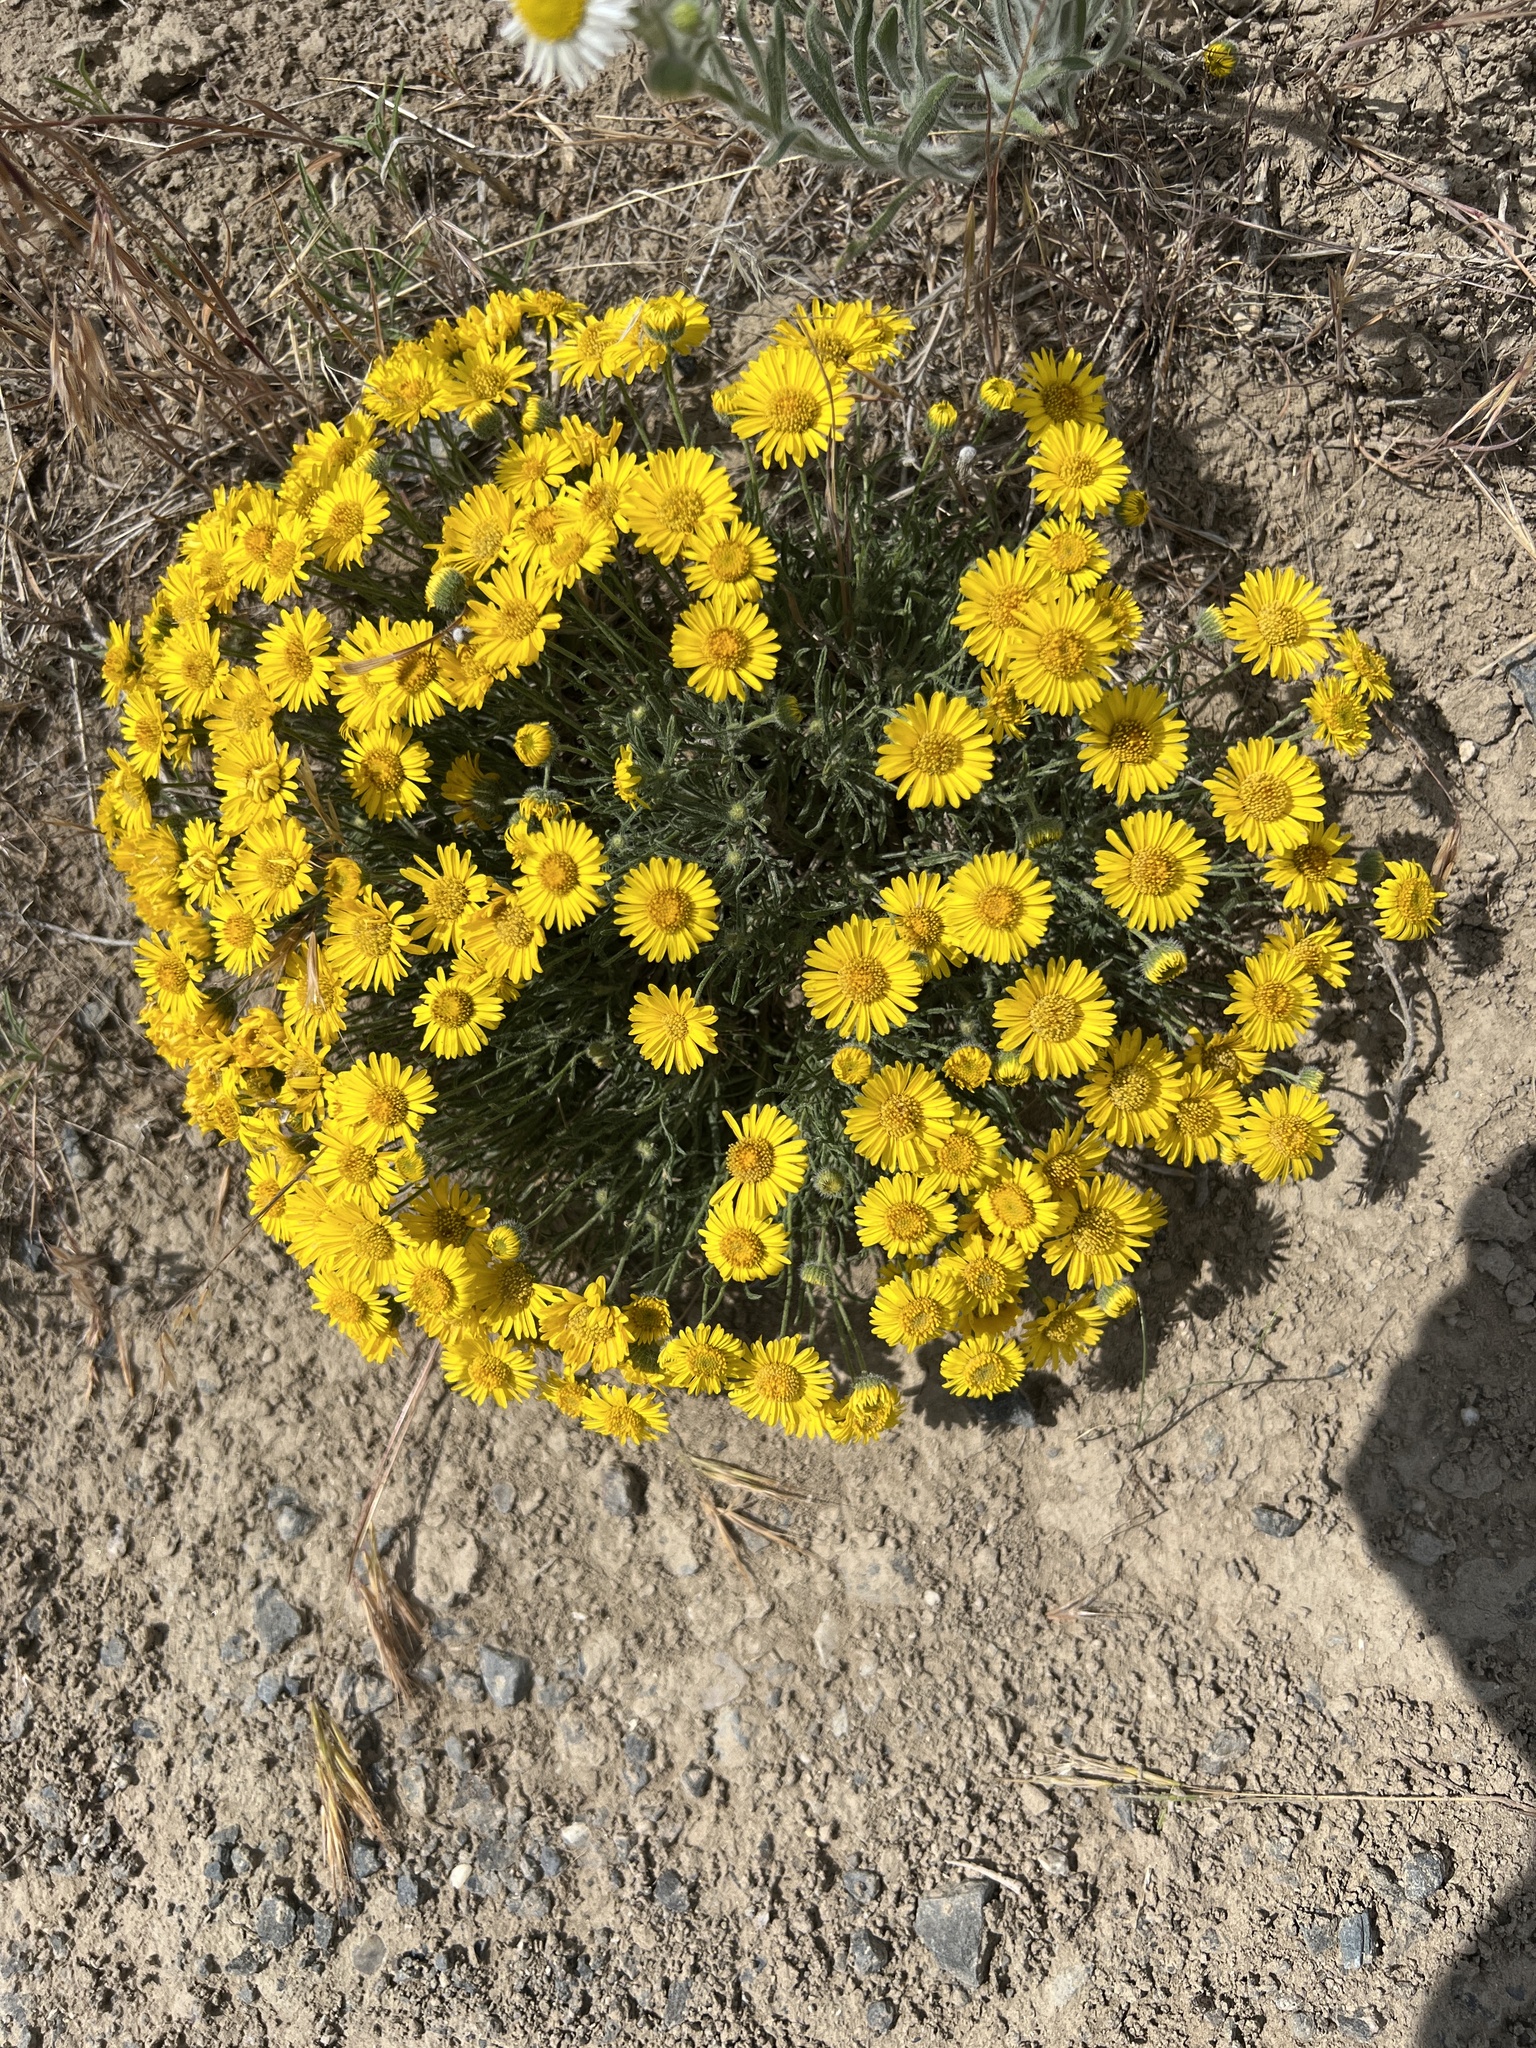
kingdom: Plantae
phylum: Tracheophyta
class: Magnoliopsida
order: Asterales
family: Asteraceae
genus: Erigeron
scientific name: Erigeron piperianus
